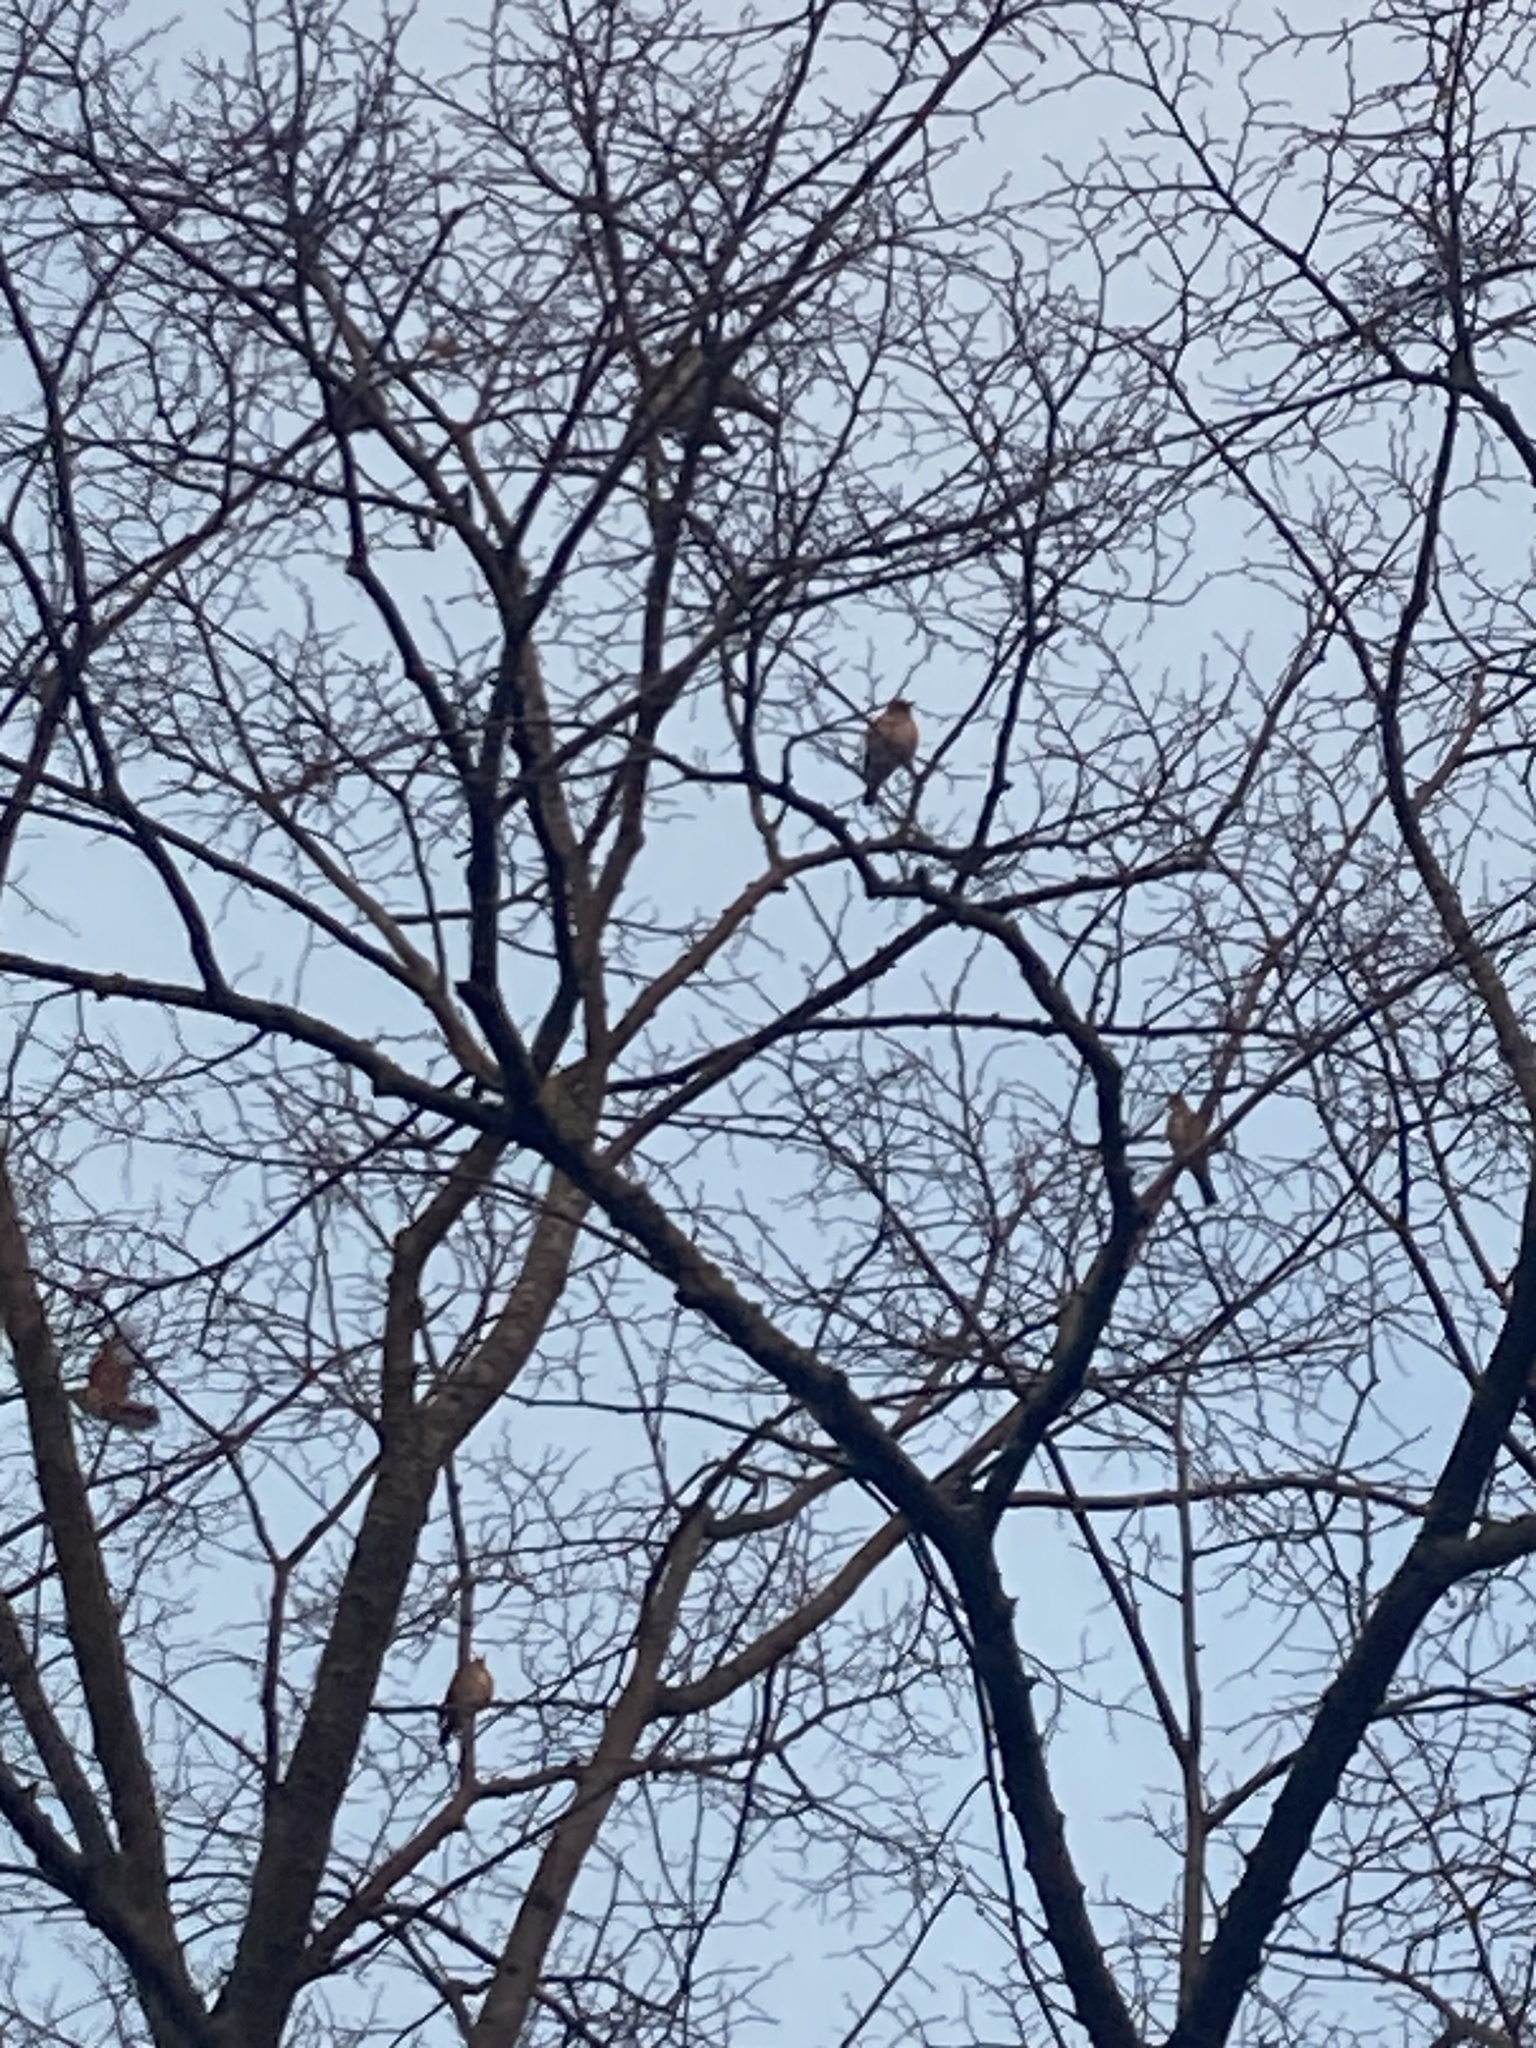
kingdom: Animalia
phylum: Chordata
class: Aves
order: Passeriformes
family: Turdidae
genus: Turdus
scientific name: Turdus pilaris
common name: Fieldfare
